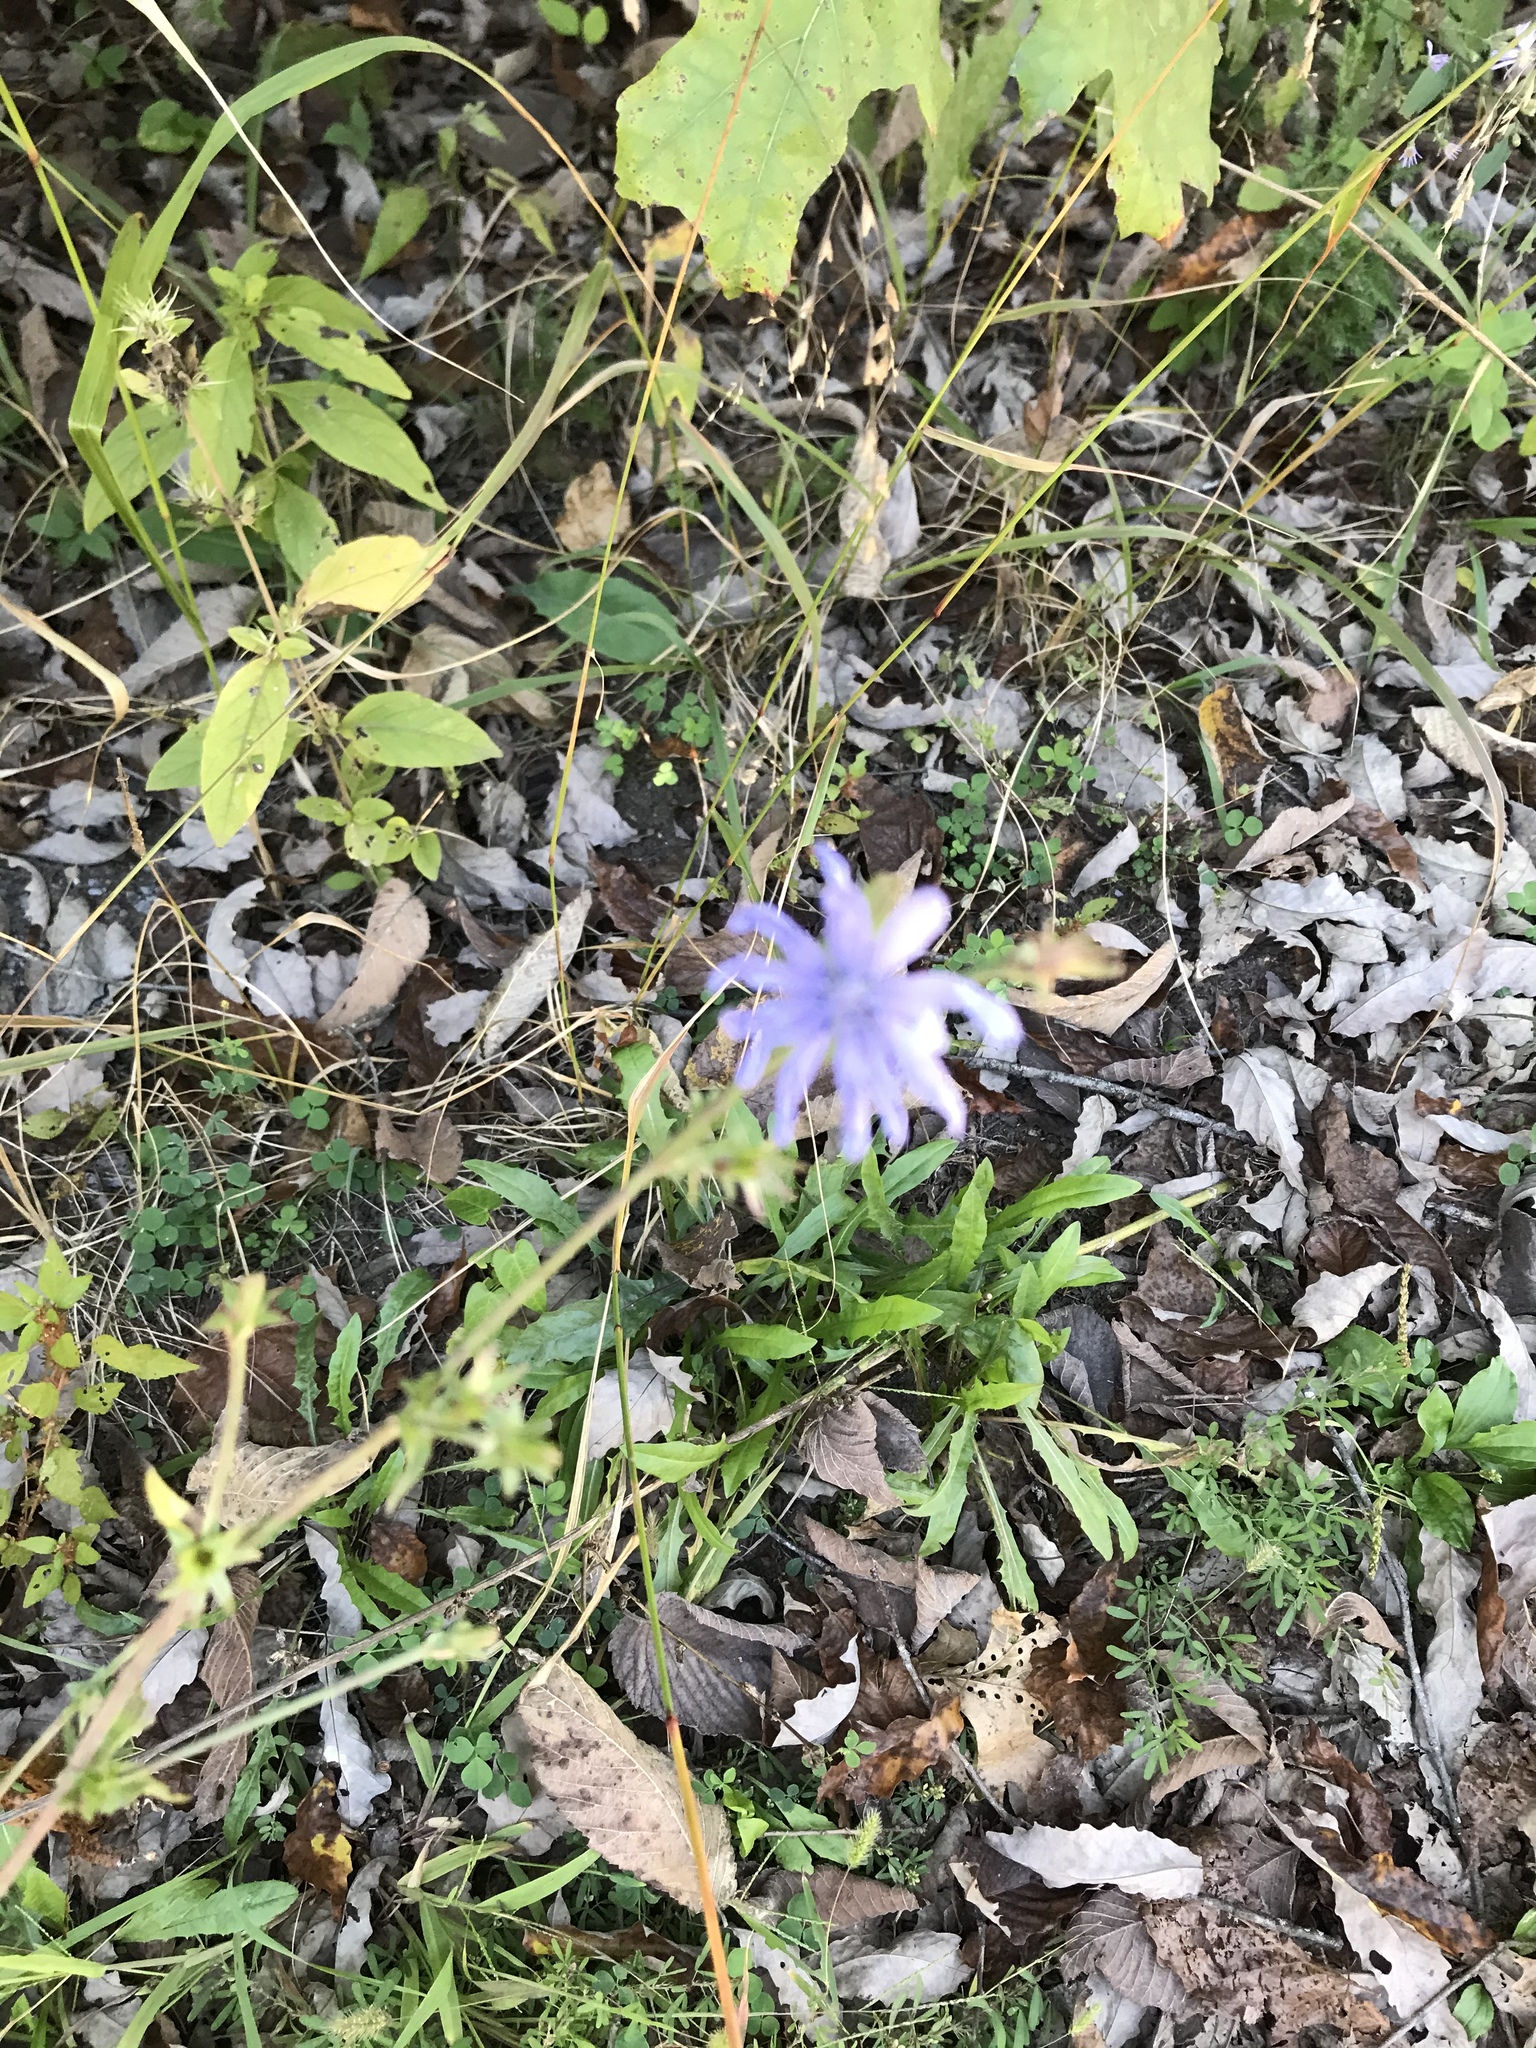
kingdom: Plantae
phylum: Tracheophyta
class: Magnoliopsida
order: Asterales
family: Asteraceae
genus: Cichorium
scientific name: Cichorium intybus
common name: Chicory
